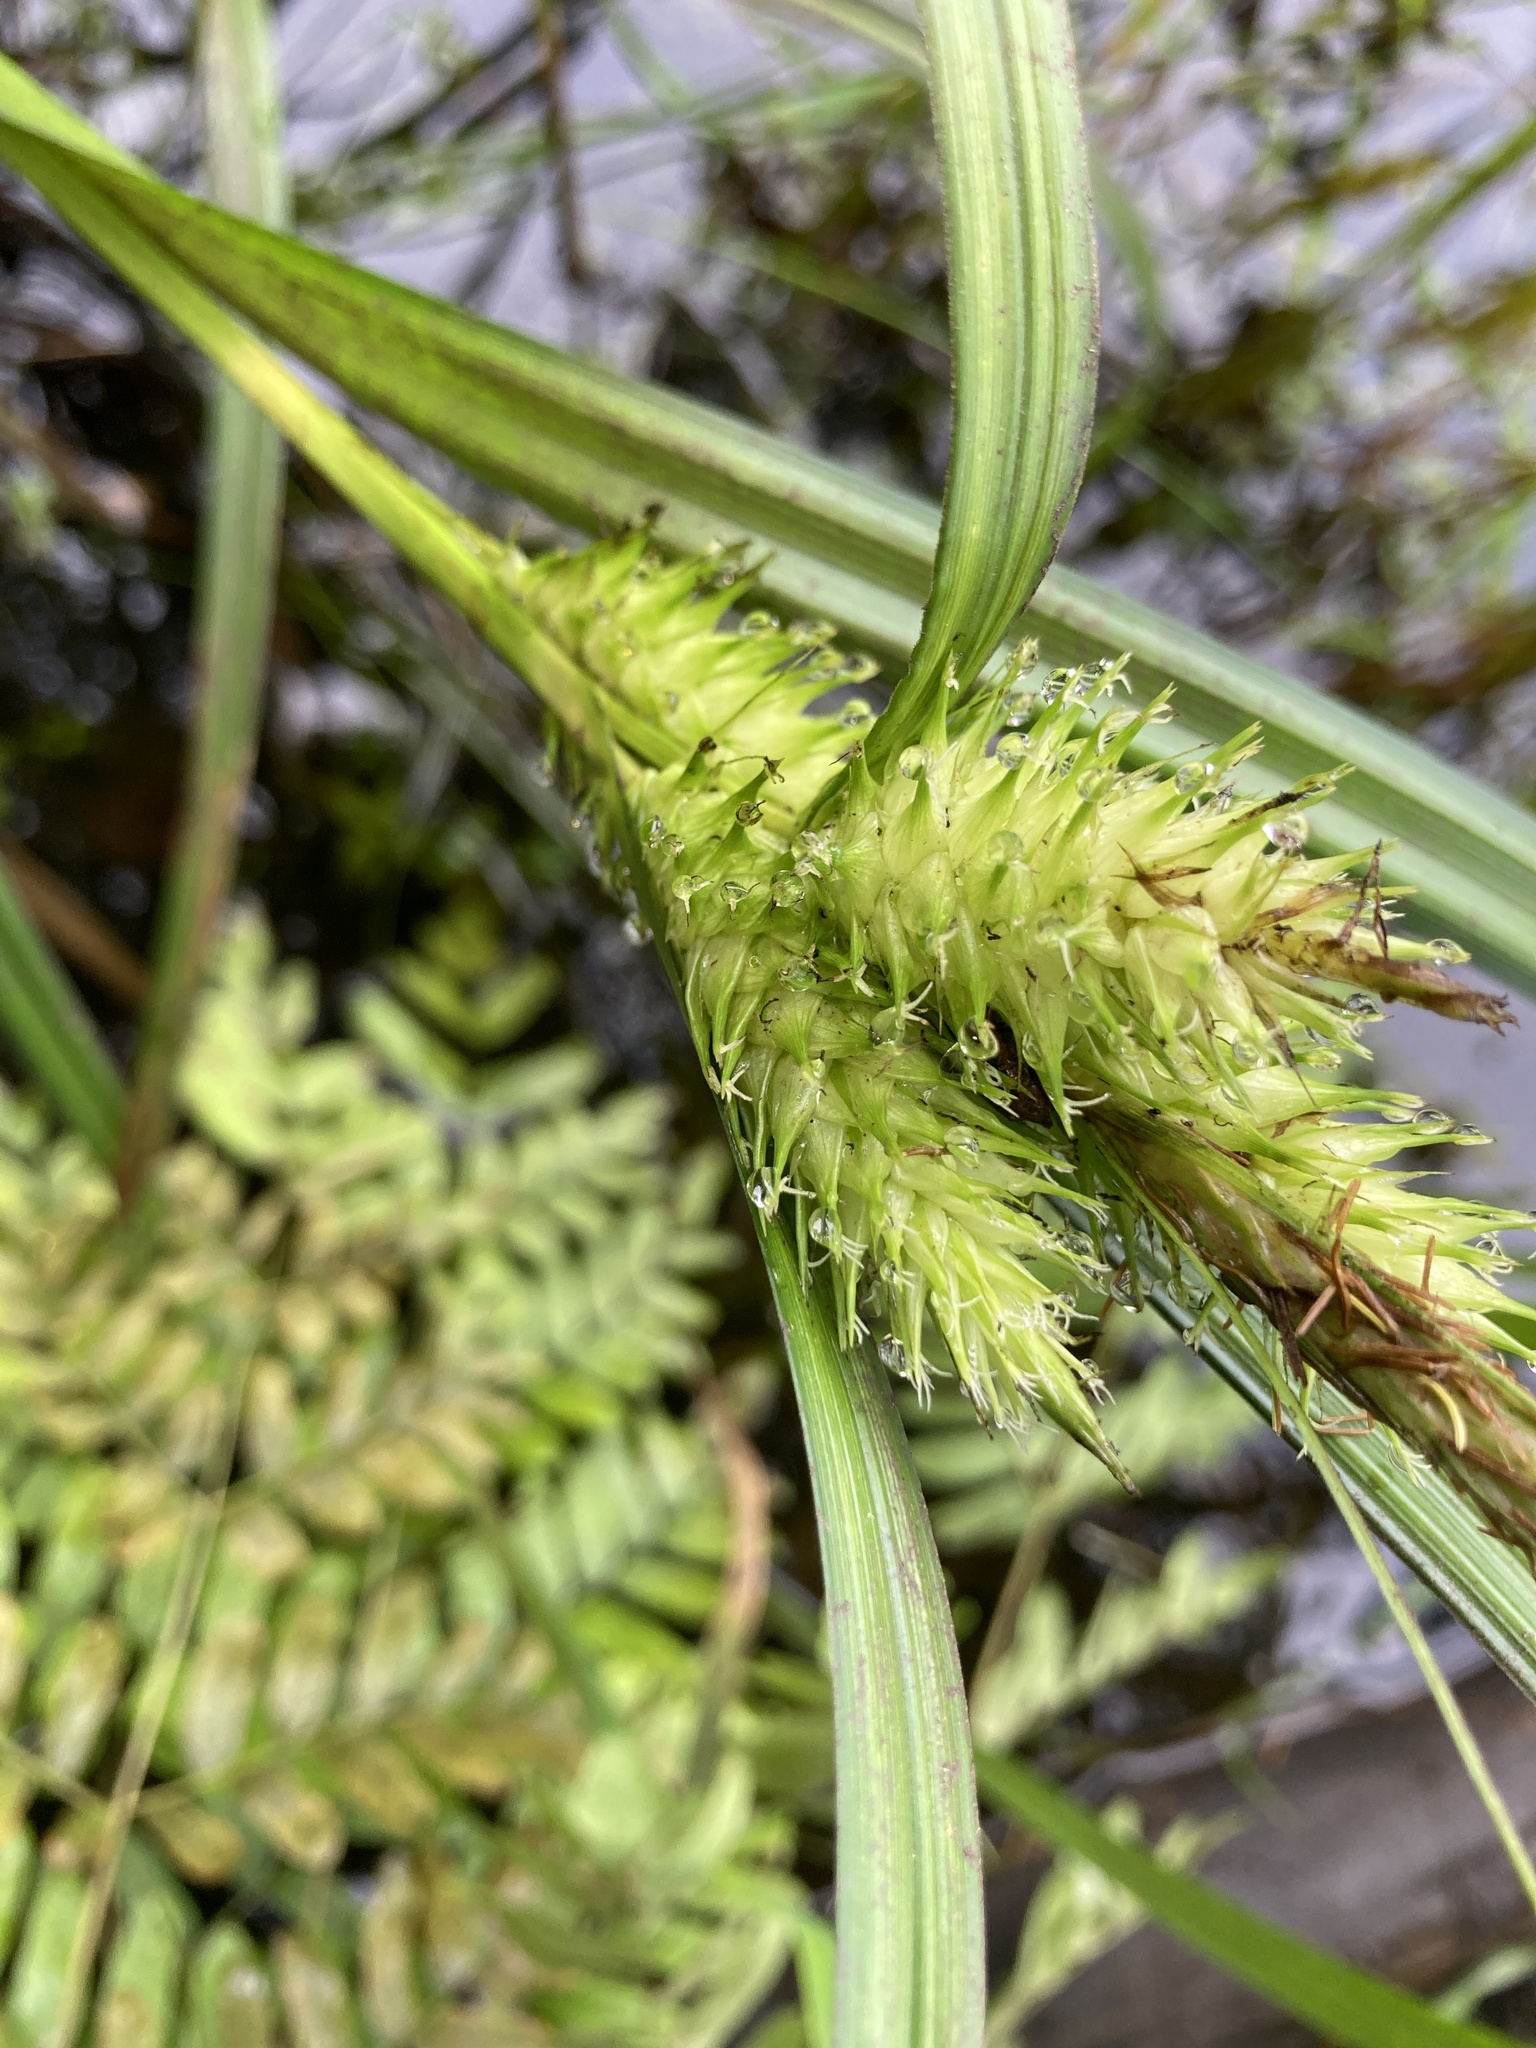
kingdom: Plantae
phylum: Tracheophyta
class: Liliopsida
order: Poales
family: Cyperaceae
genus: Carex
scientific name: Carex lupulina
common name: Hop sedge
